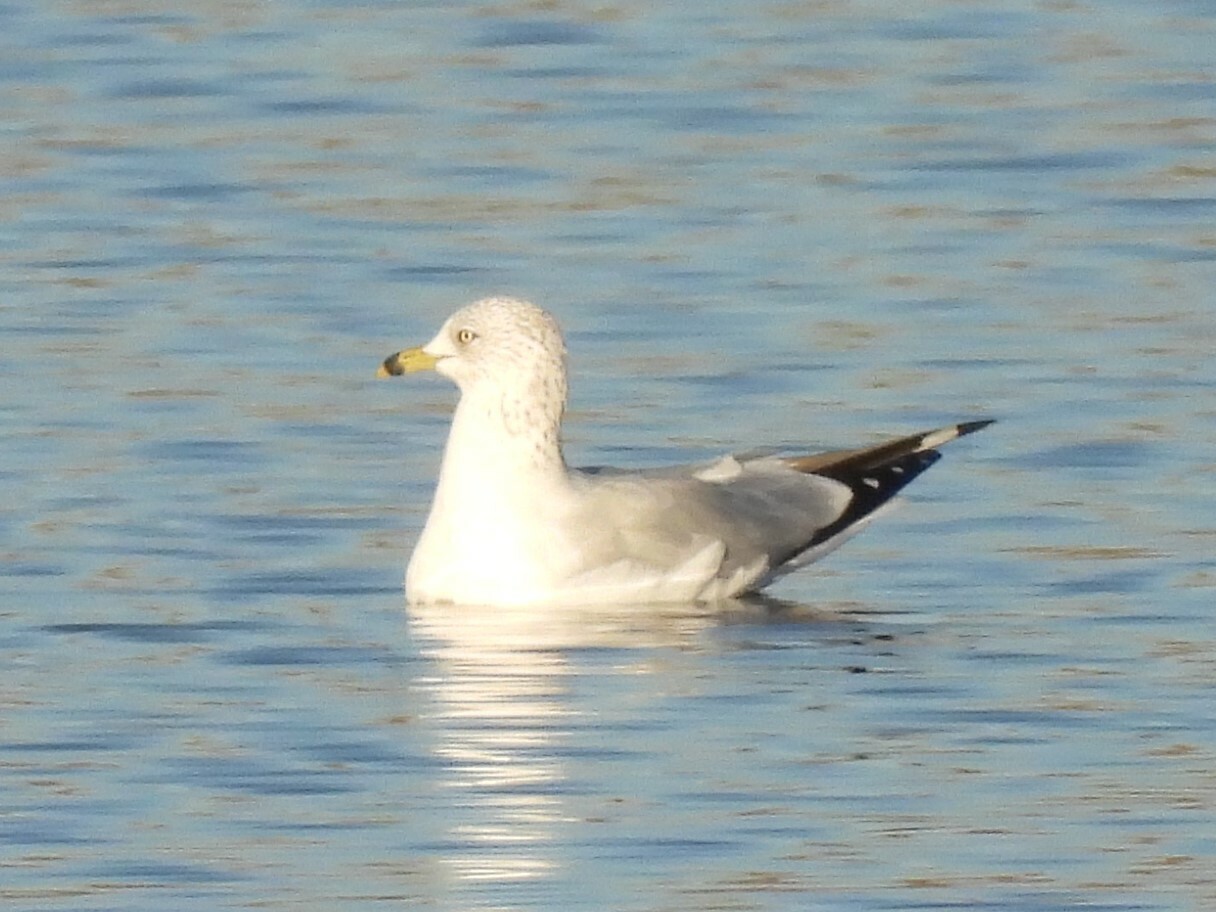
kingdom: Animalia
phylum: Chordata
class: Aves
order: Charadriiformes
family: Laridae
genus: Larus
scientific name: Larus delawarensis
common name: Ring-billed gull
